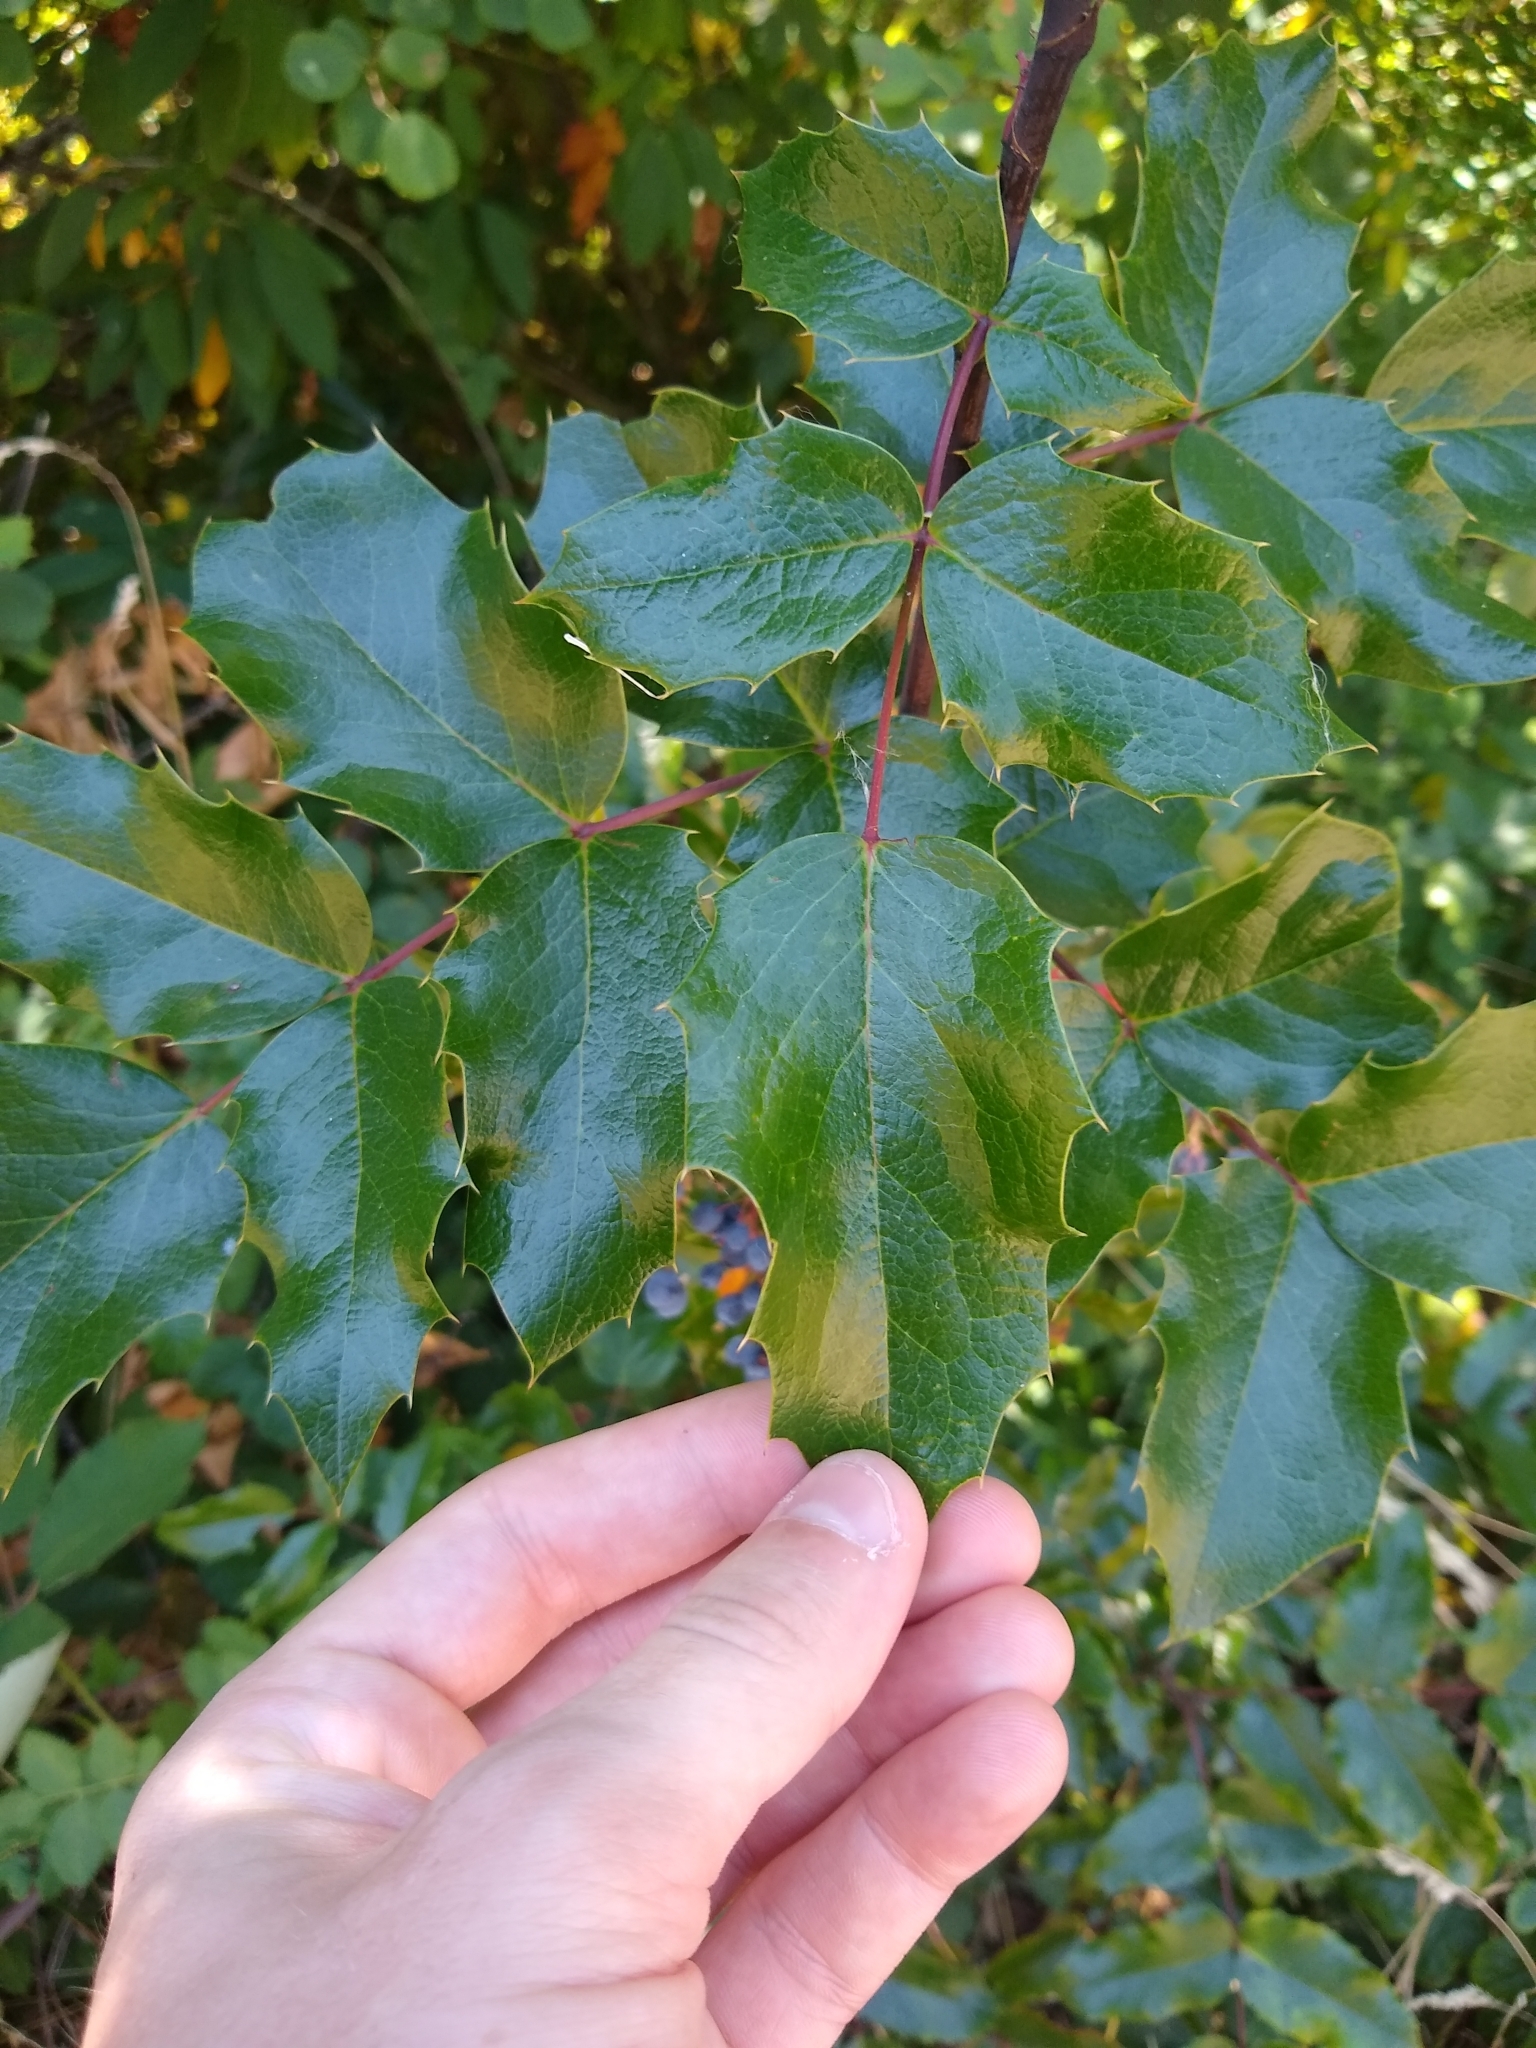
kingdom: Plantae
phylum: Tracheophyta
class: Magnoliopsida
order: Ranunculales
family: Berberidaceae
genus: Mahonia
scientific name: Mahonia aquifolium
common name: Oregon-grape
